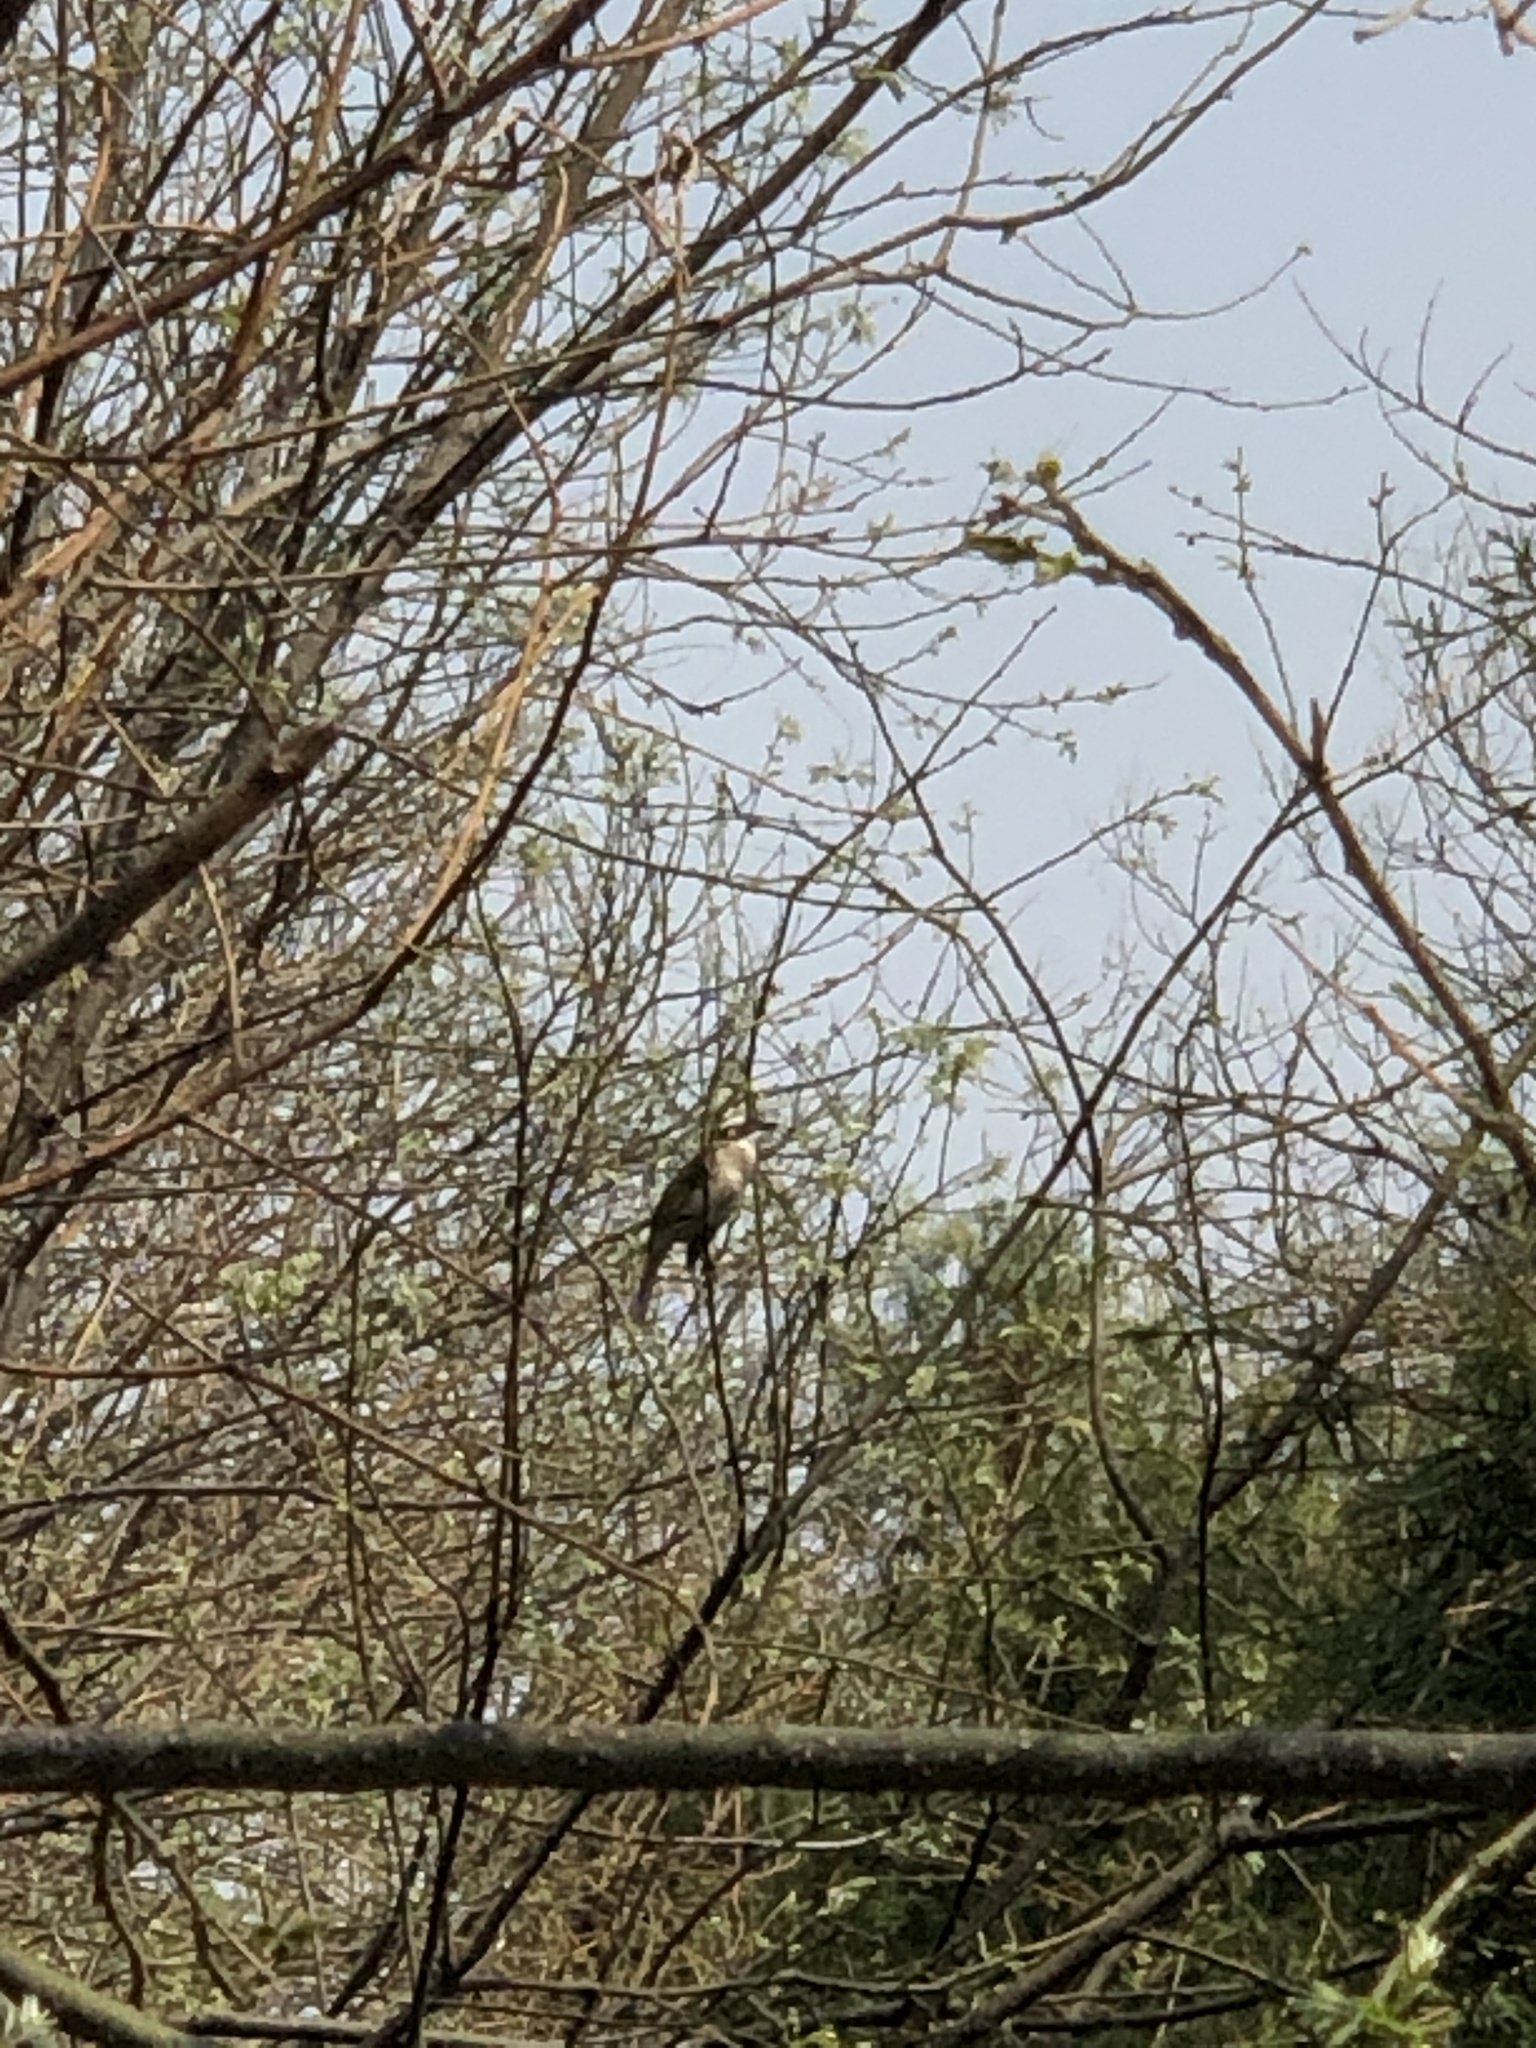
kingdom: Animalia
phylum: Chordata
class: Aves
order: Passeriformes
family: Pycnonotidae
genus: Pycnonotus
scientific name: Pycnonotus sinensis
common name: Light-vented bulbul
